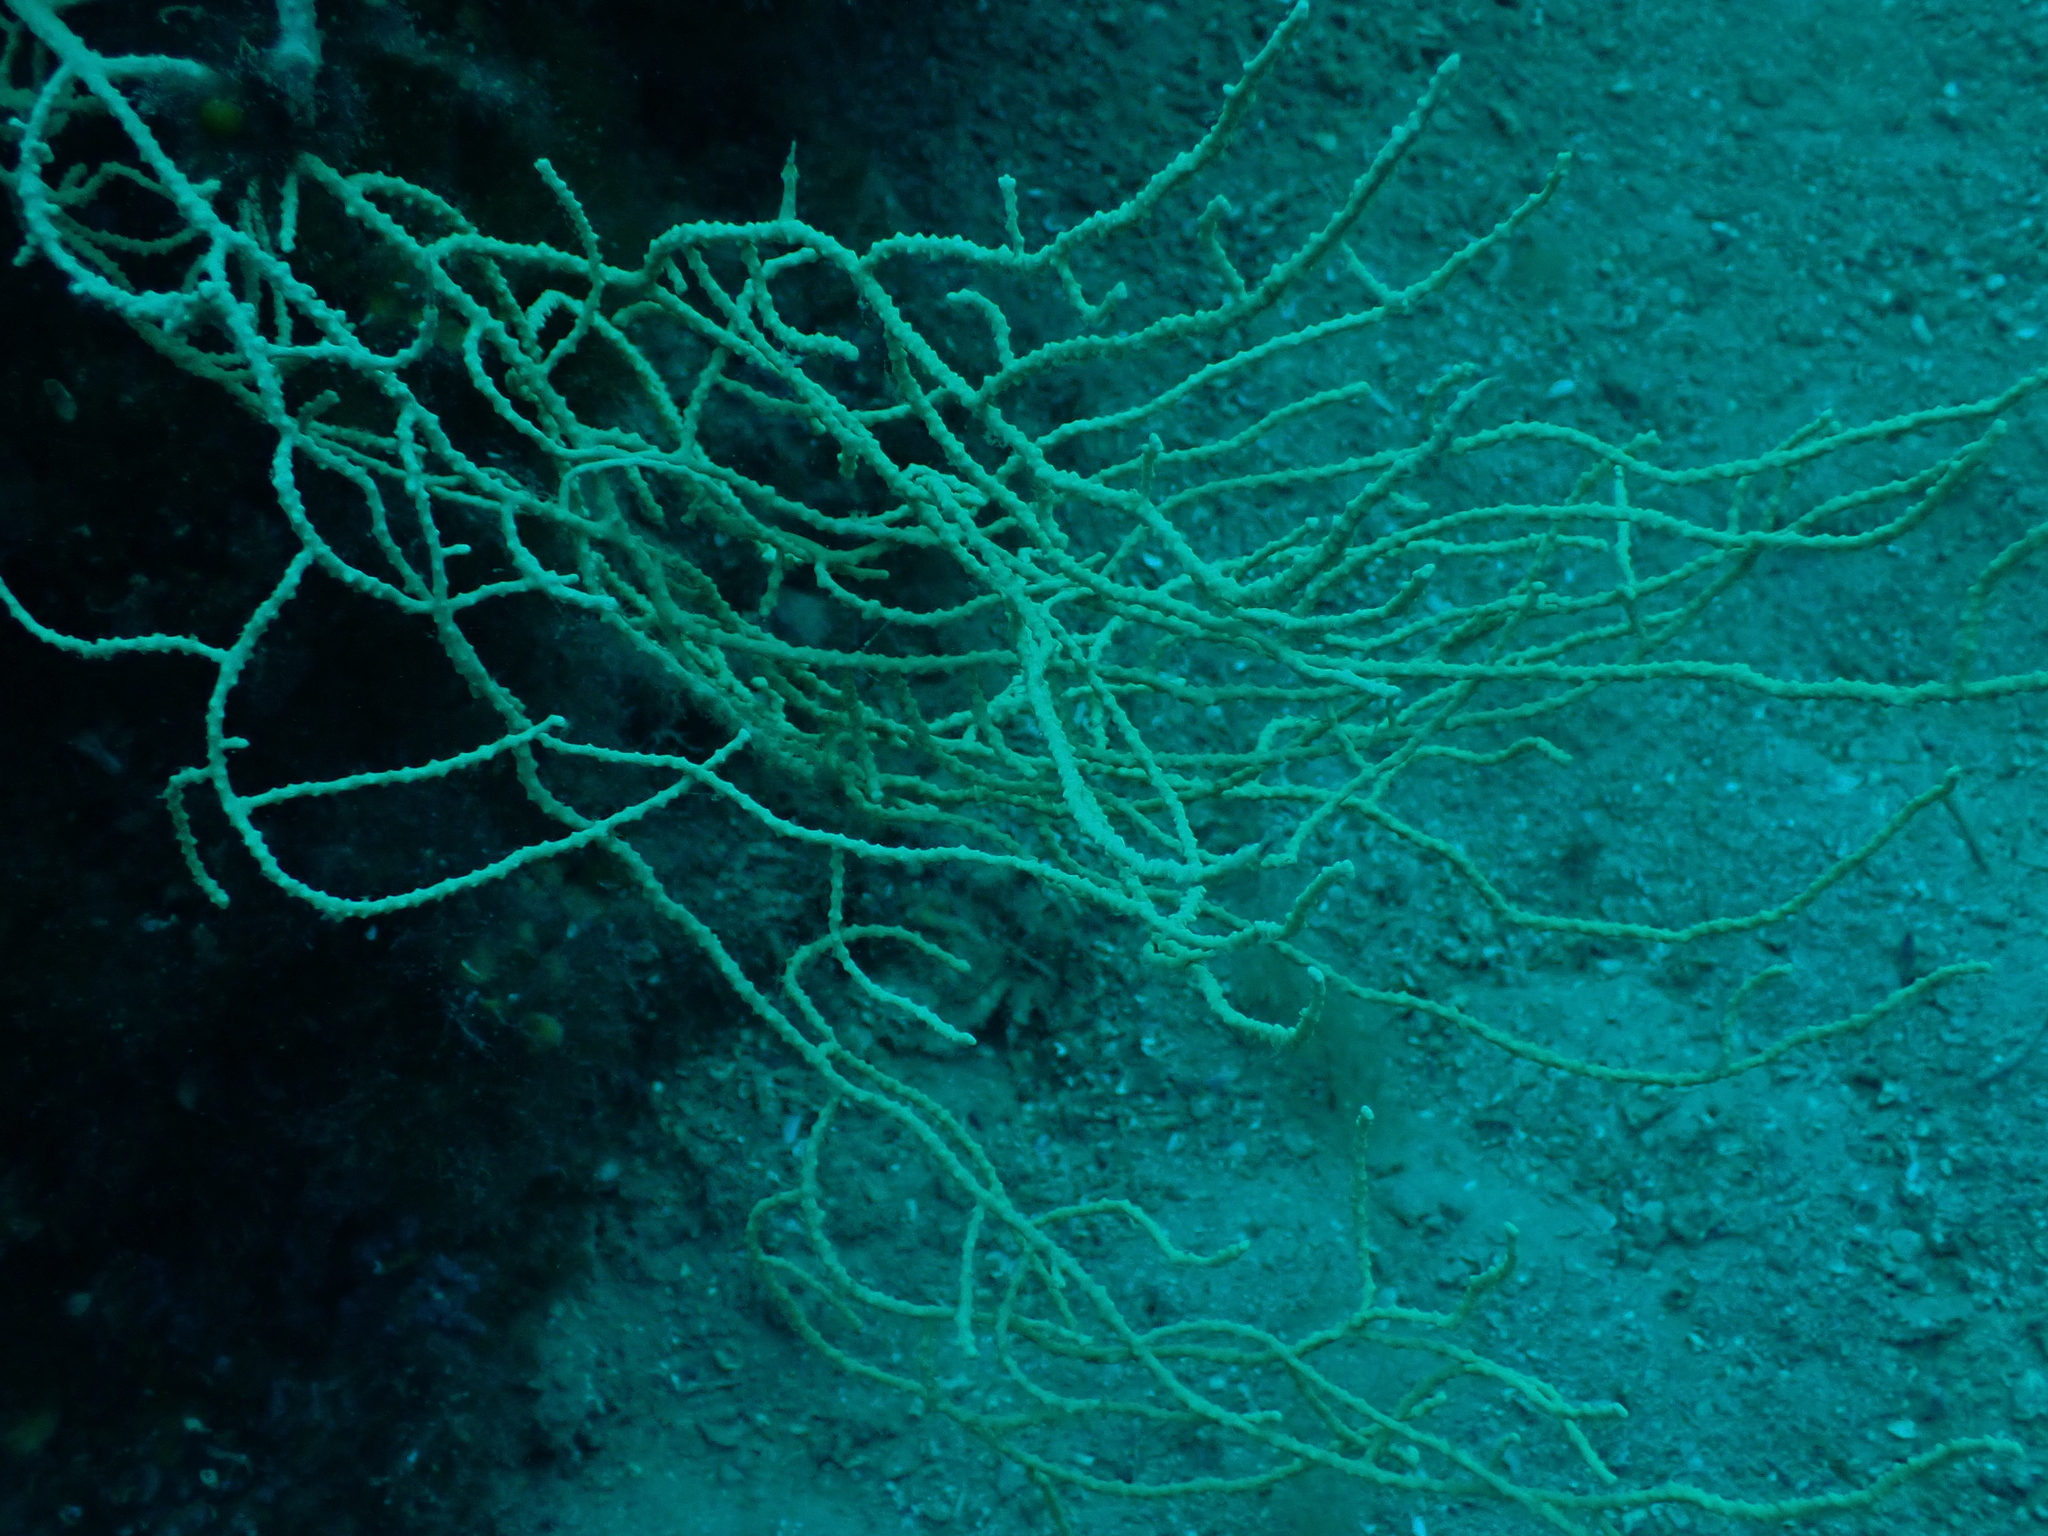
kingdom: Animalia
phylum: Cnidaria
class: Anthozoa
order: Malacalcyonacea
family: Eunicellidae
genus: Eunicella
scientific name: Eunicella cavolini
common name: Yellow gorgonian
